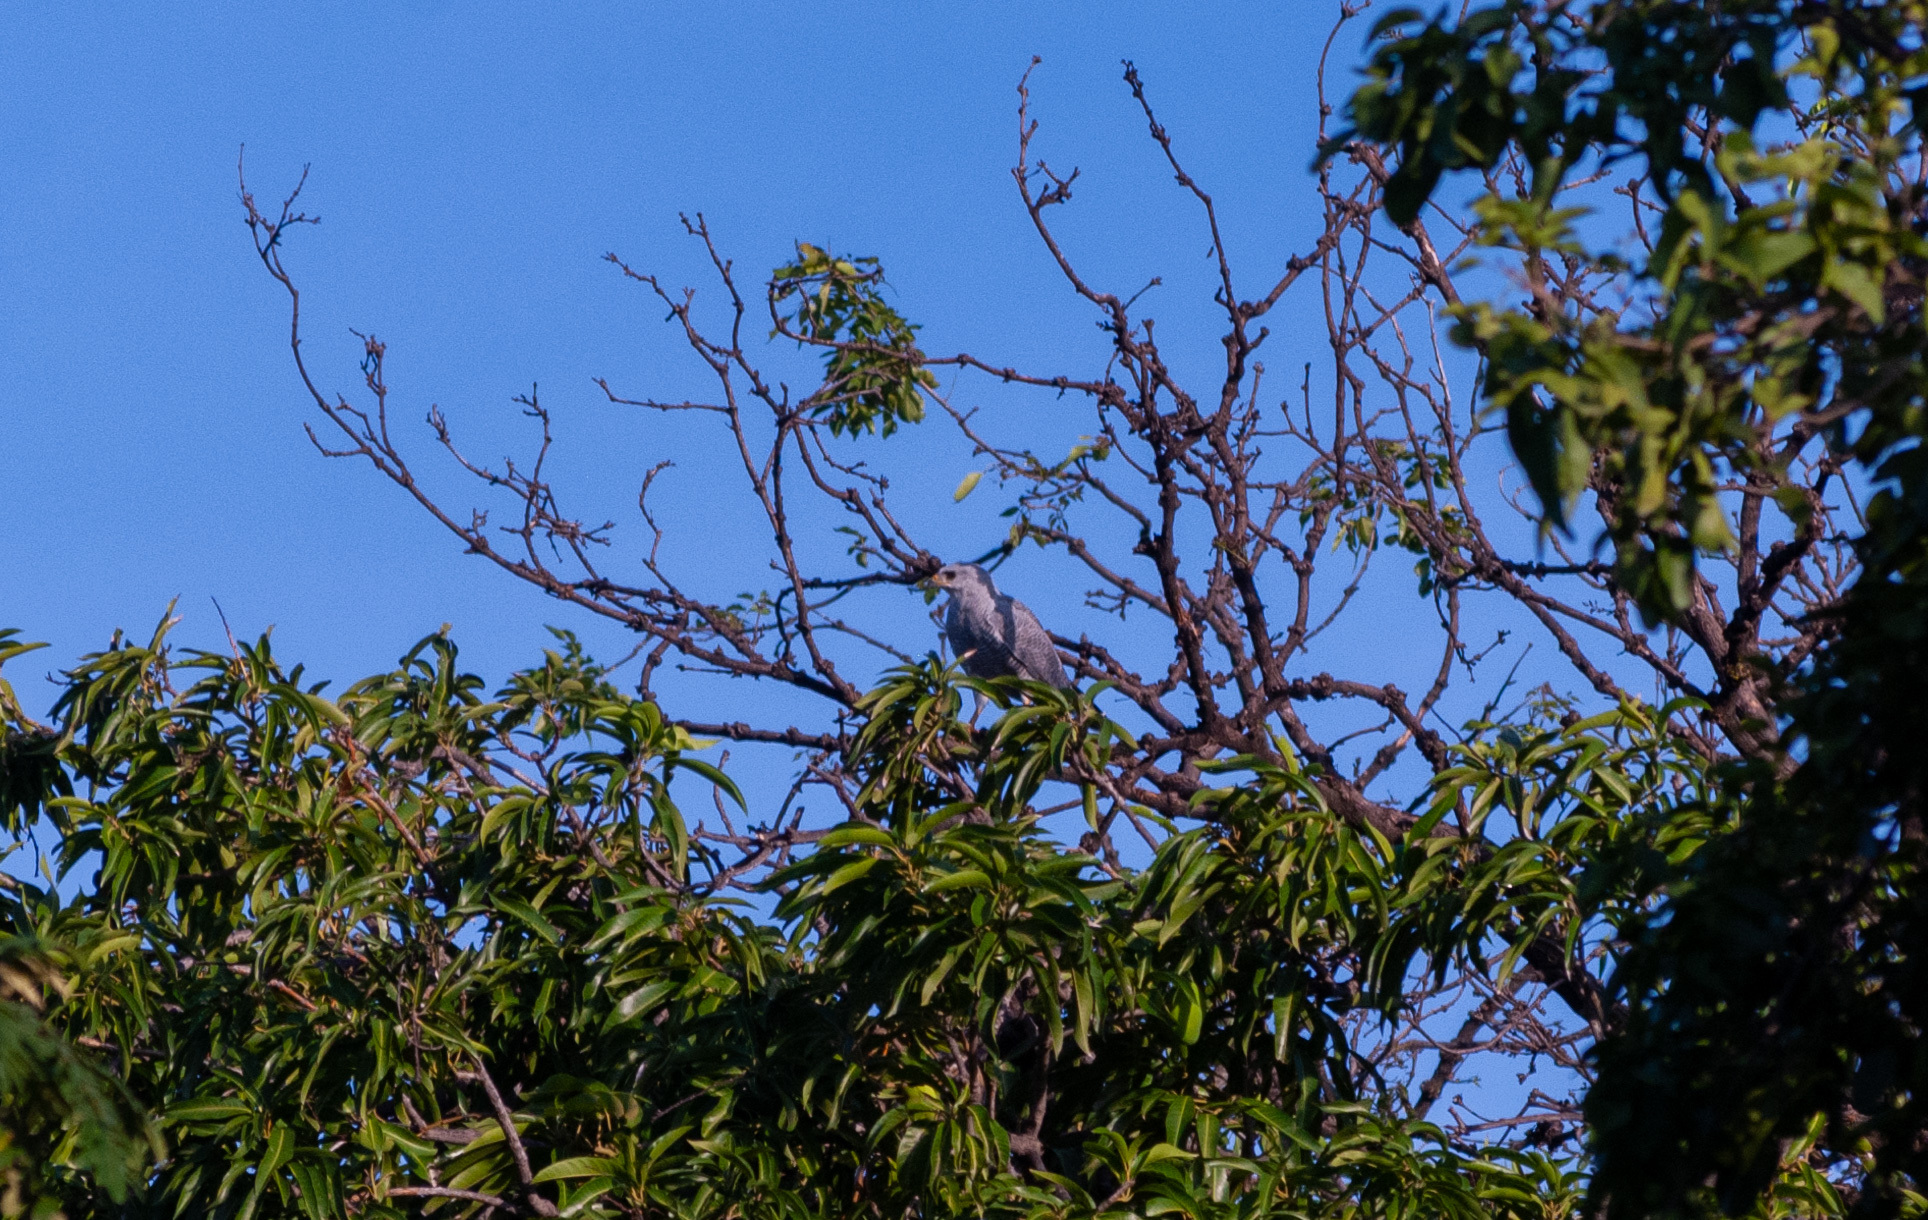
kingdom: Animalia
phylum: Chordata
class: Aves
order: Accipitriformes
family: Accipitridae
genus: Buteo
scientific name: Buteo nitidus
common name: Grey-lined hawk
